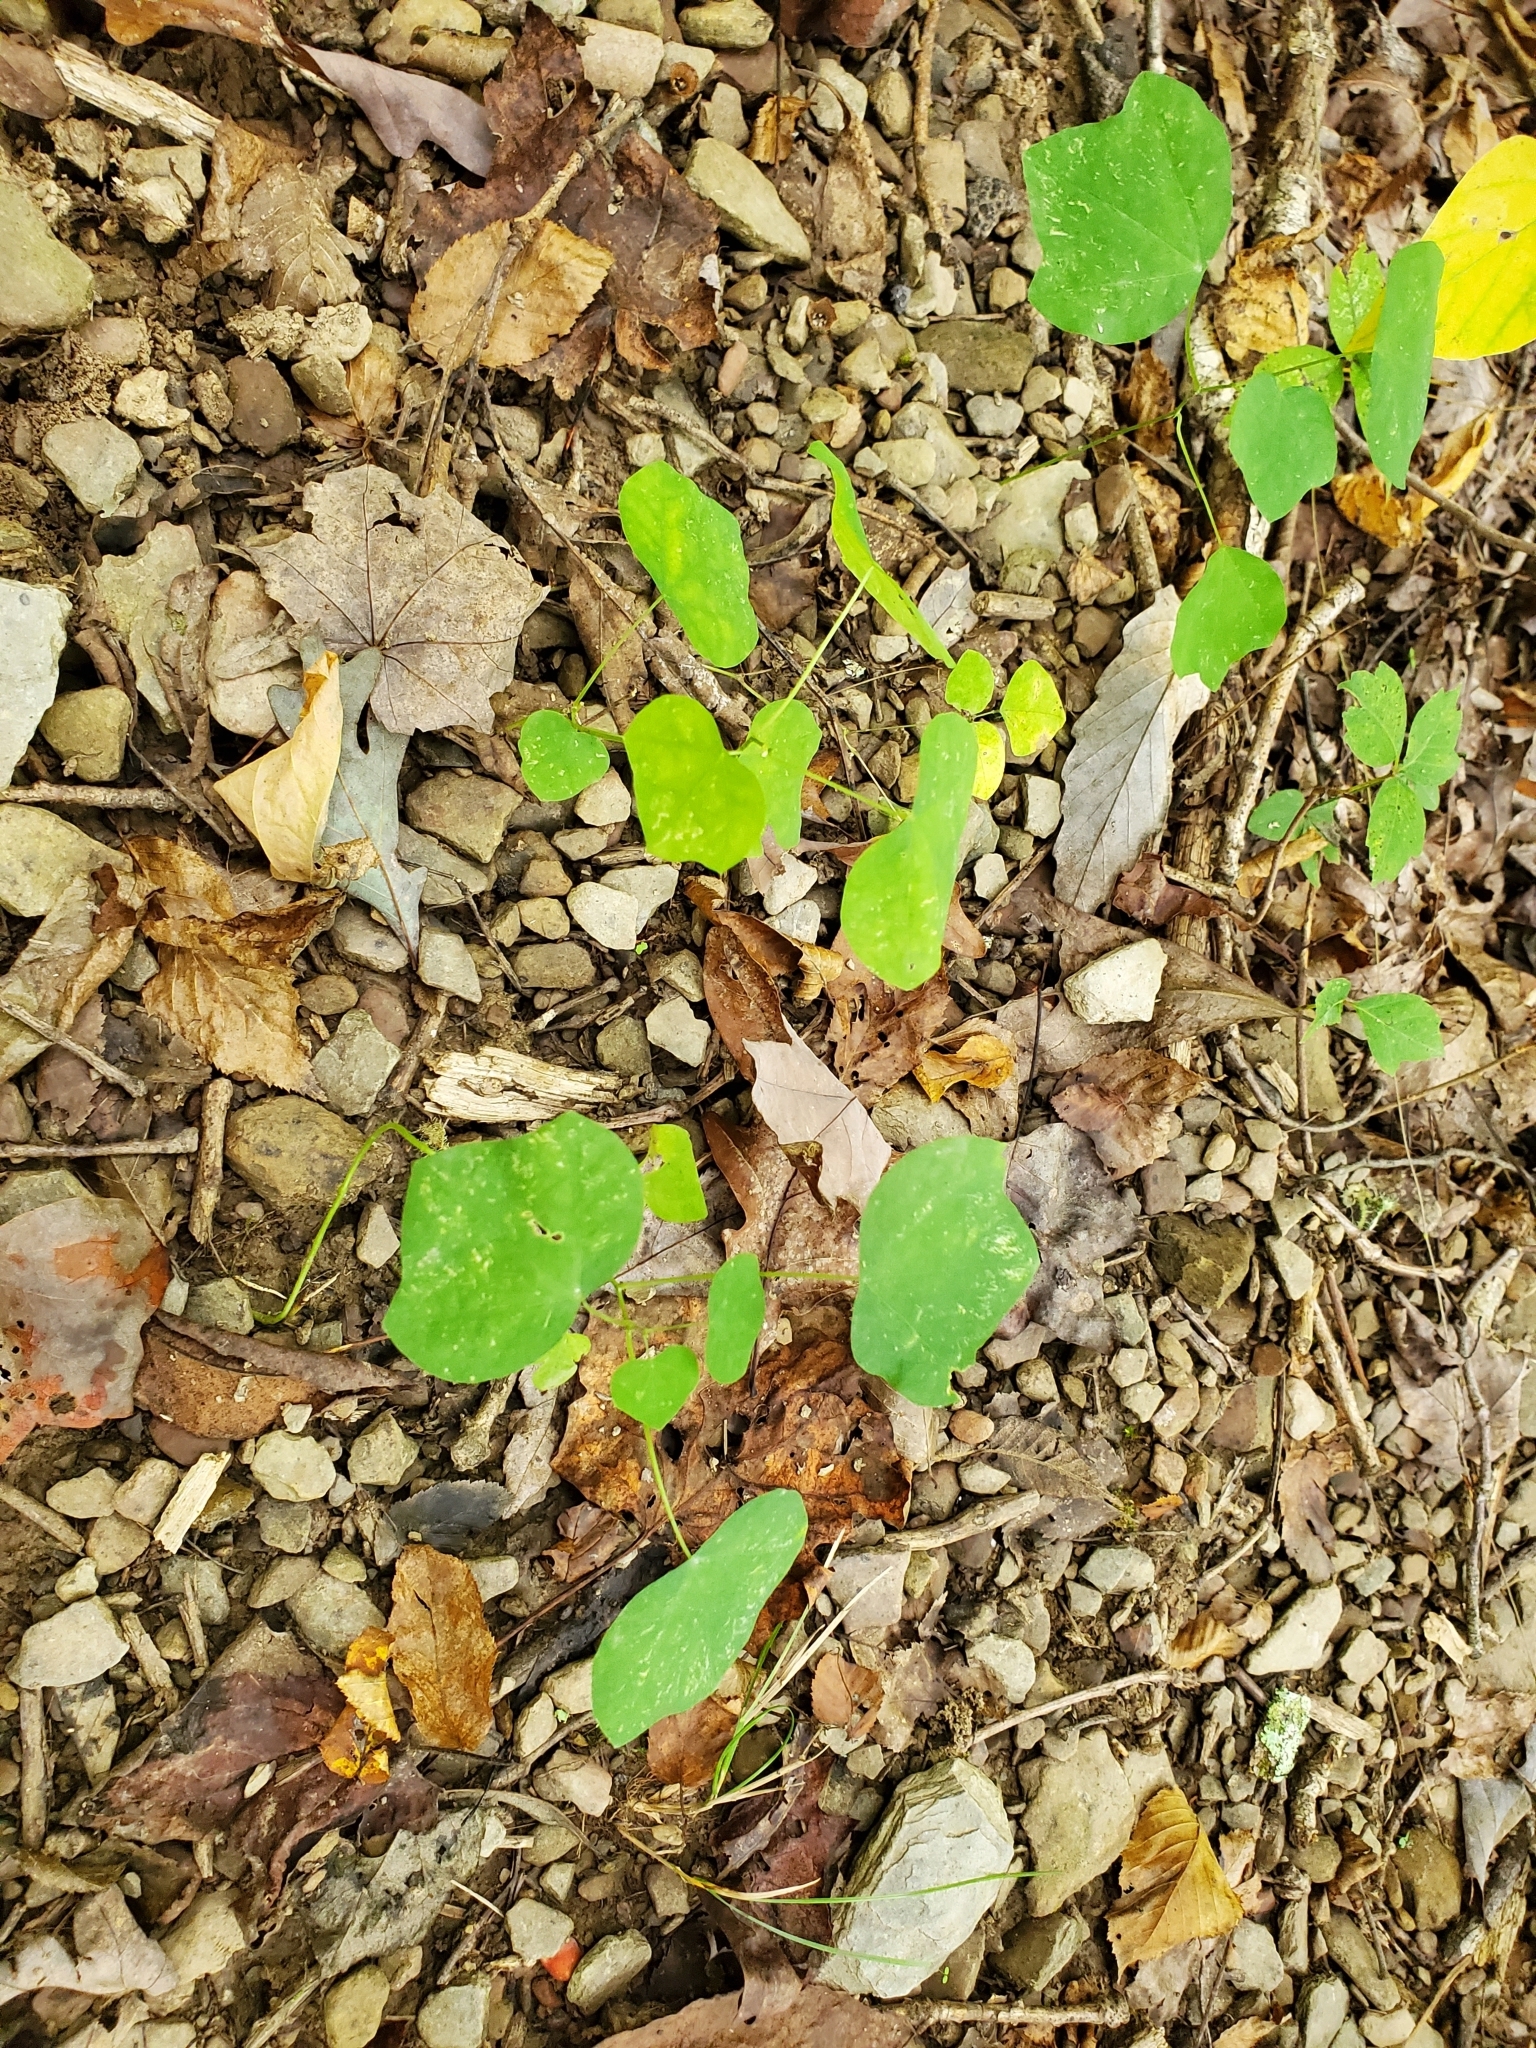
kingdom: Plantae
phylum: Tracheophyta
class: Magnoliopsida
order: Malpighiales
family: Passifloraceae
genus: Passiflora
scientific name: Passiflora lutea
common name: Yellow passionflower
